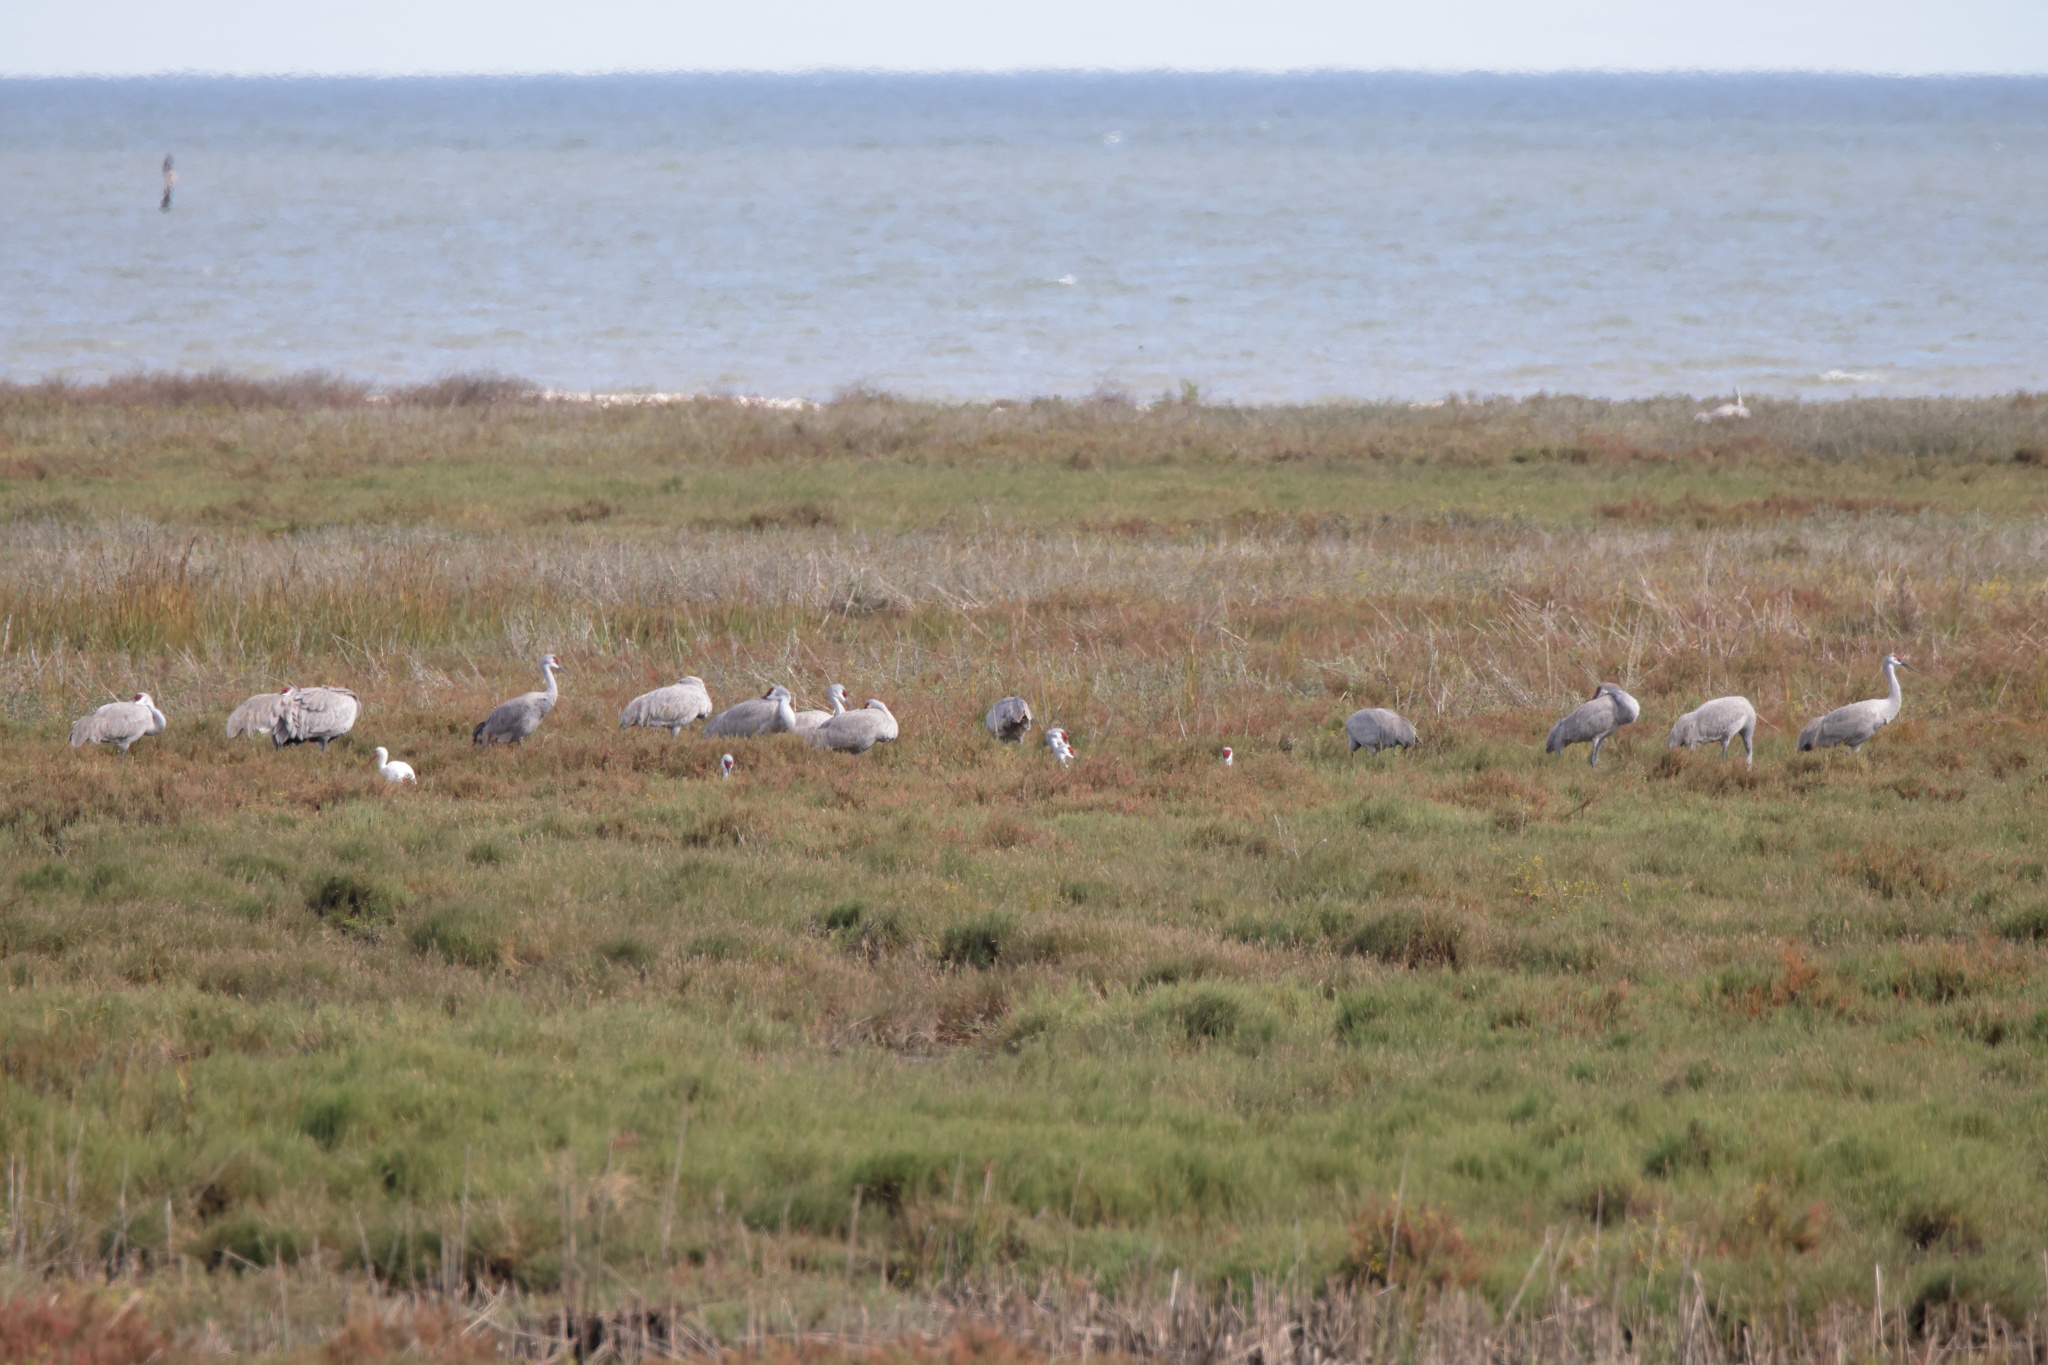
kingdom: Animalia
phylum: Chordata
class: Aves
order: Gruiformes
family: Gruidae
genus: Grus
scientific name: Grus canadensis
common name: Sandhill crane
